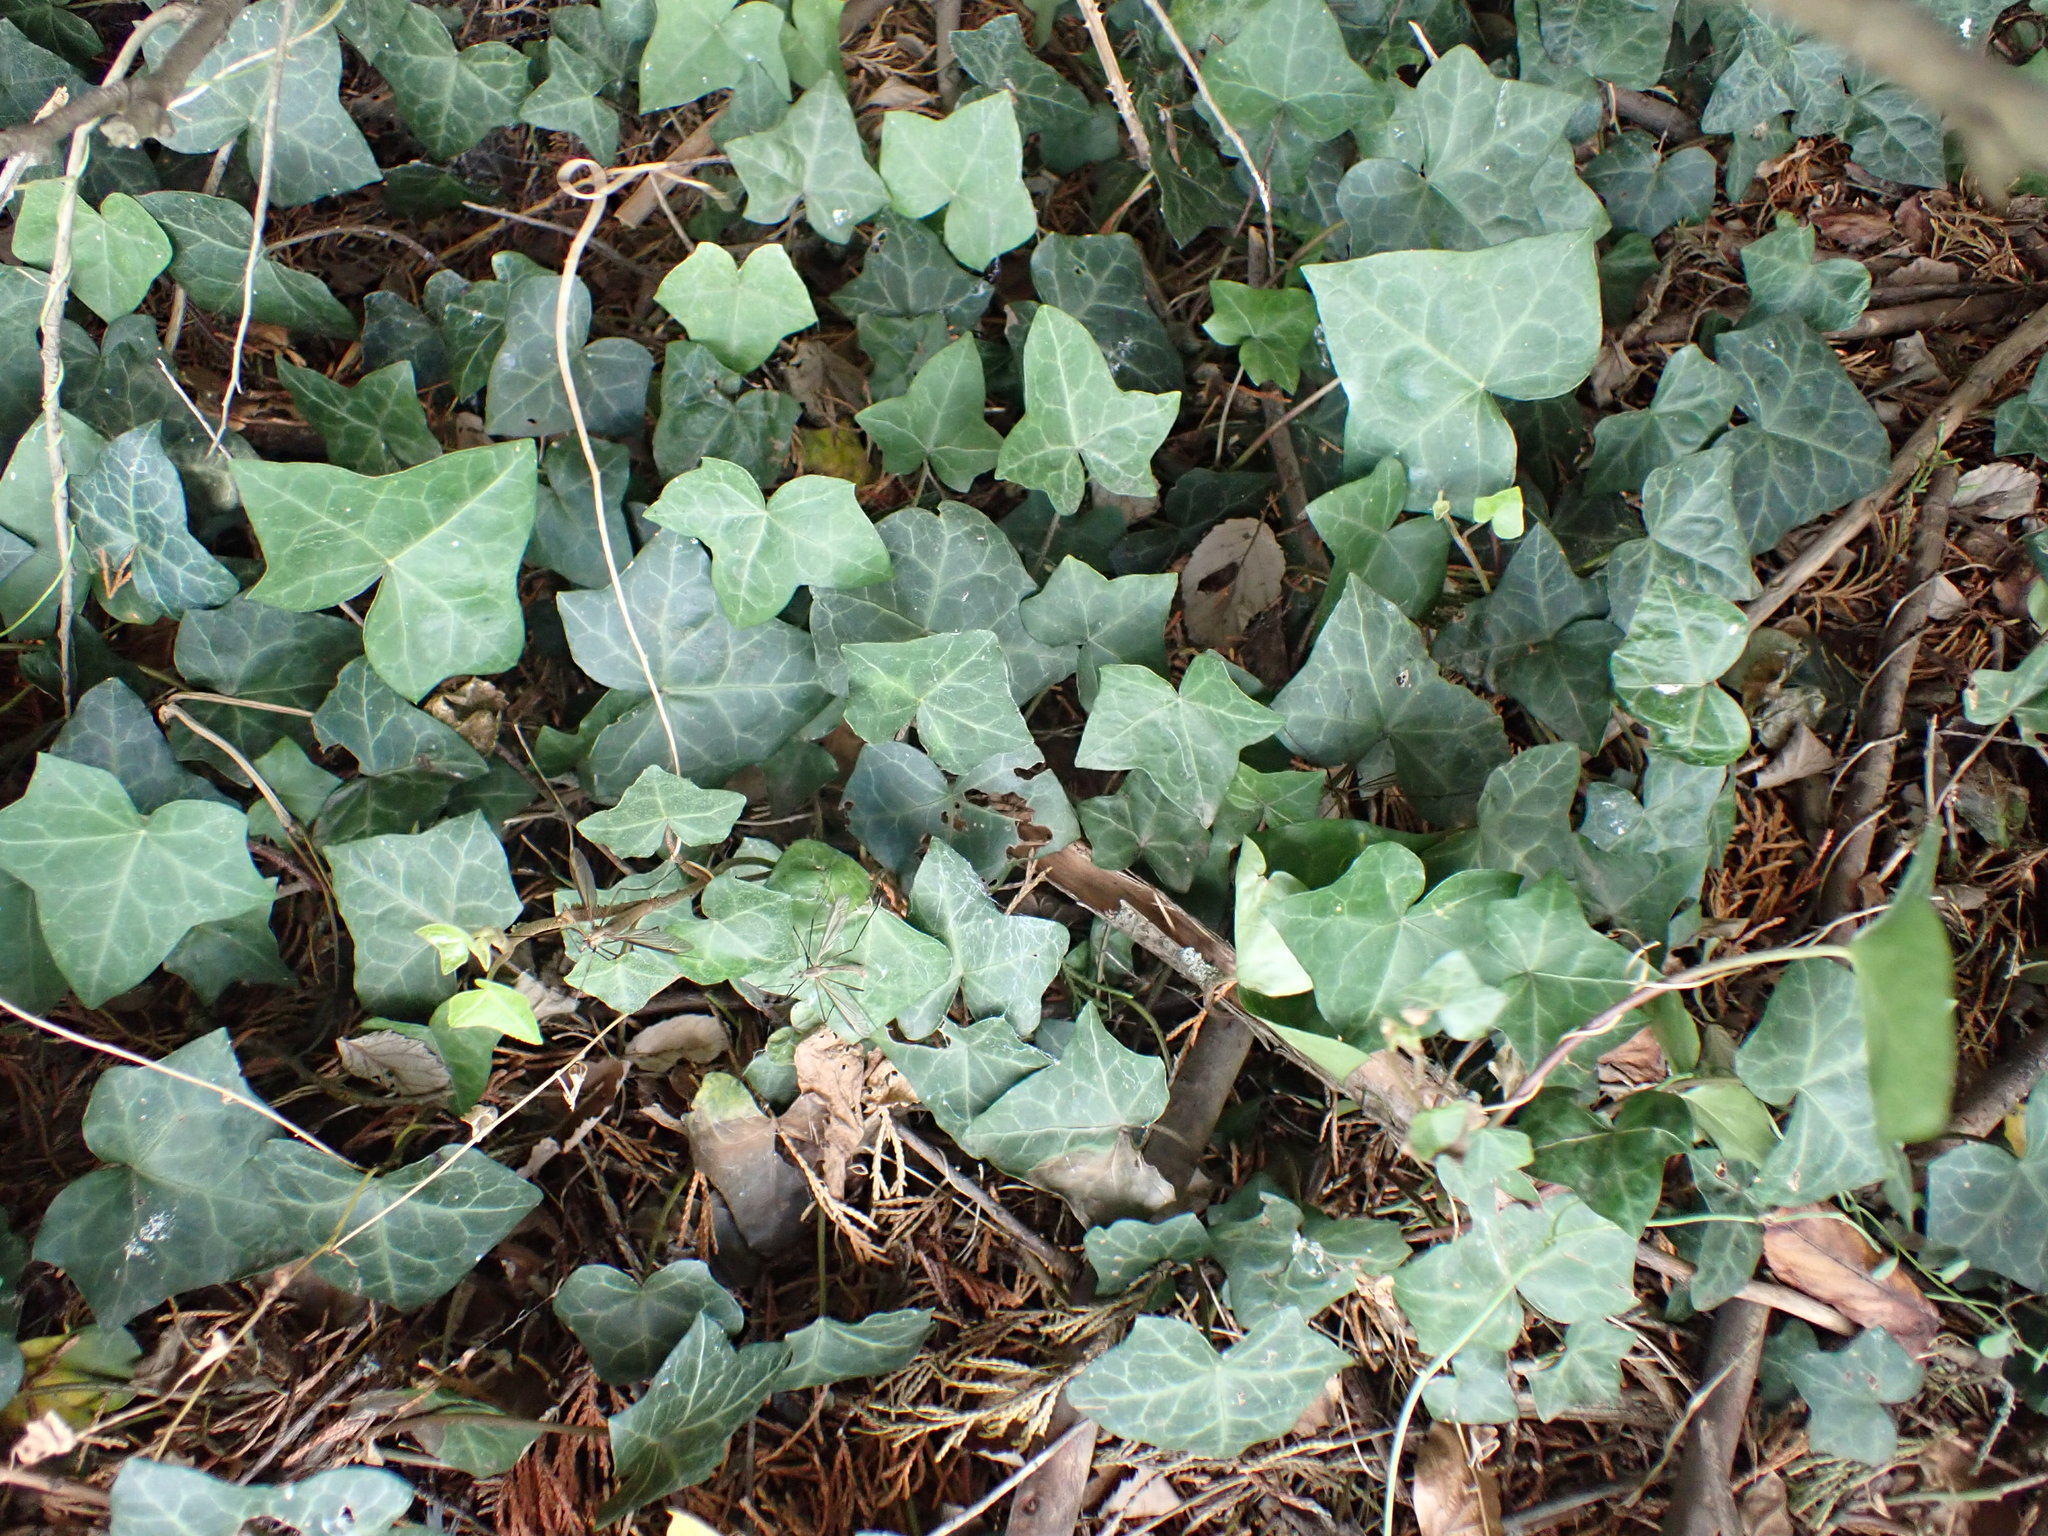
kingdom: Plantae
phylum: Tracheophyta
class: Magnoliopsida
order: Apiales
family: Araliaceae
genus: Hedera
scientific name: Hedera helix
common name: Ivy
